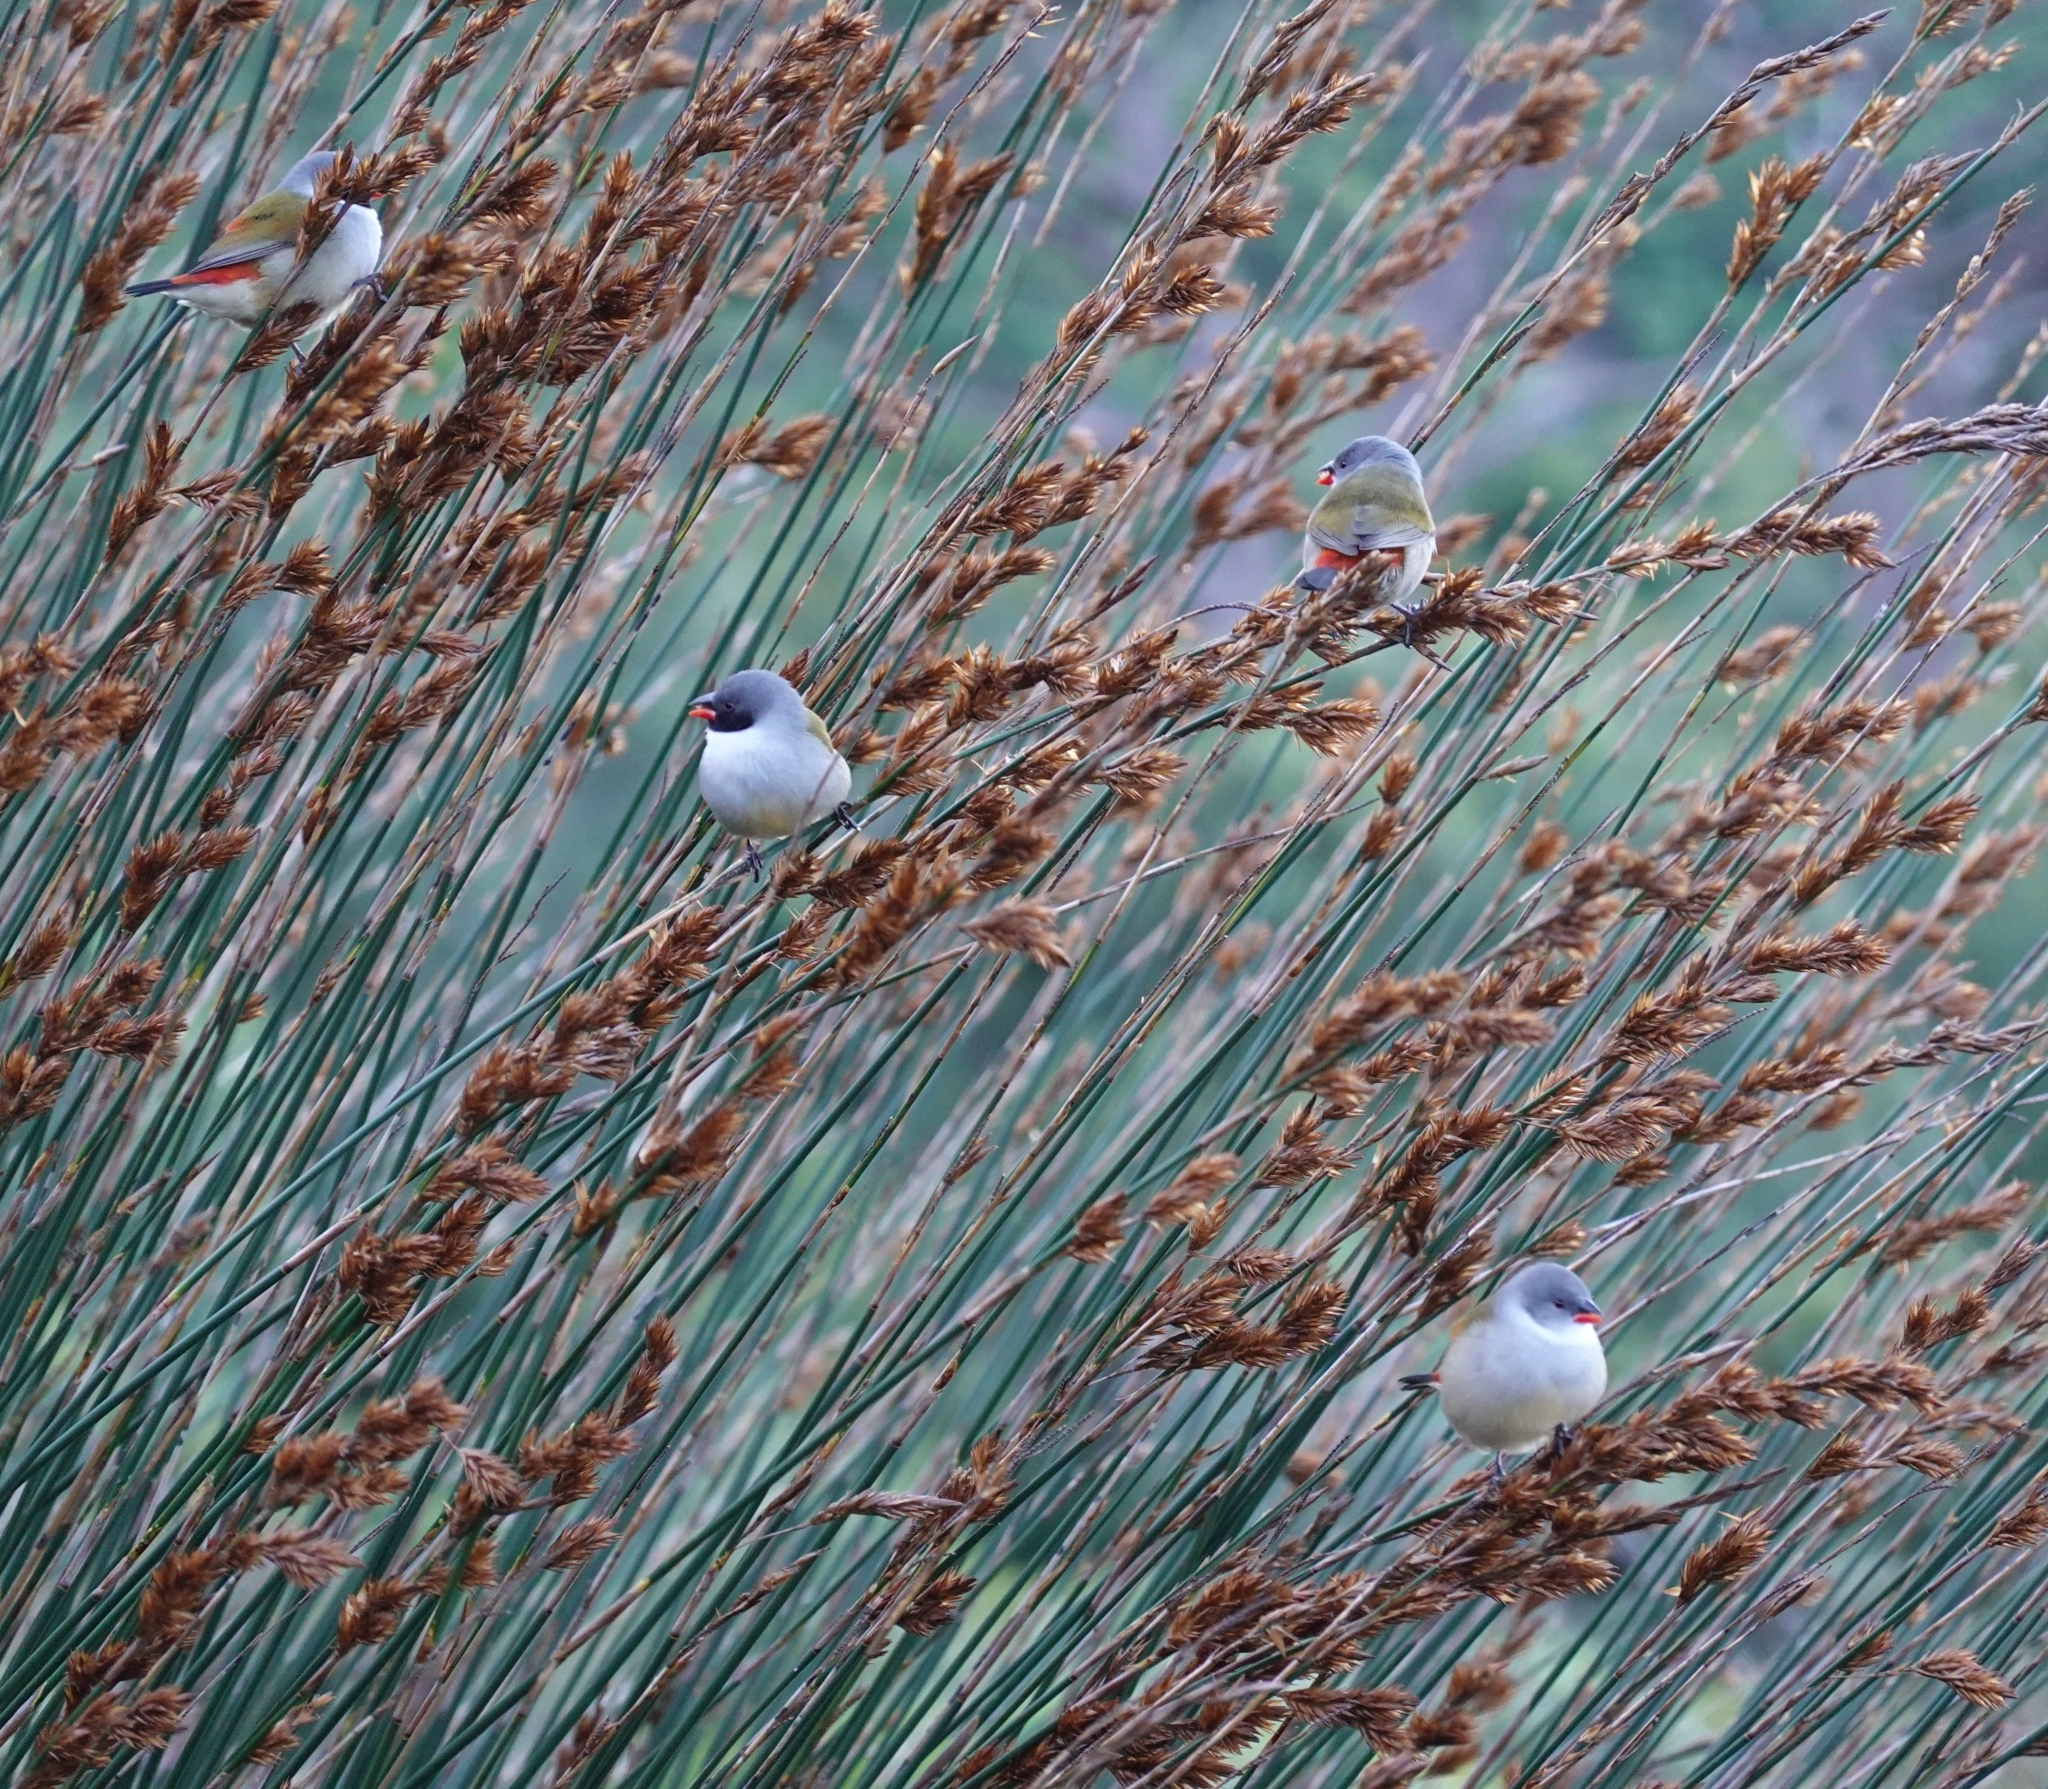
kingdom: Animalia
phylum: Chordata
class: Aves
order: Passeriformes
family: Estrildidae
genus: Coccopygia
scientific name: Coccopygia melanotis
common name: Swee waxbill
